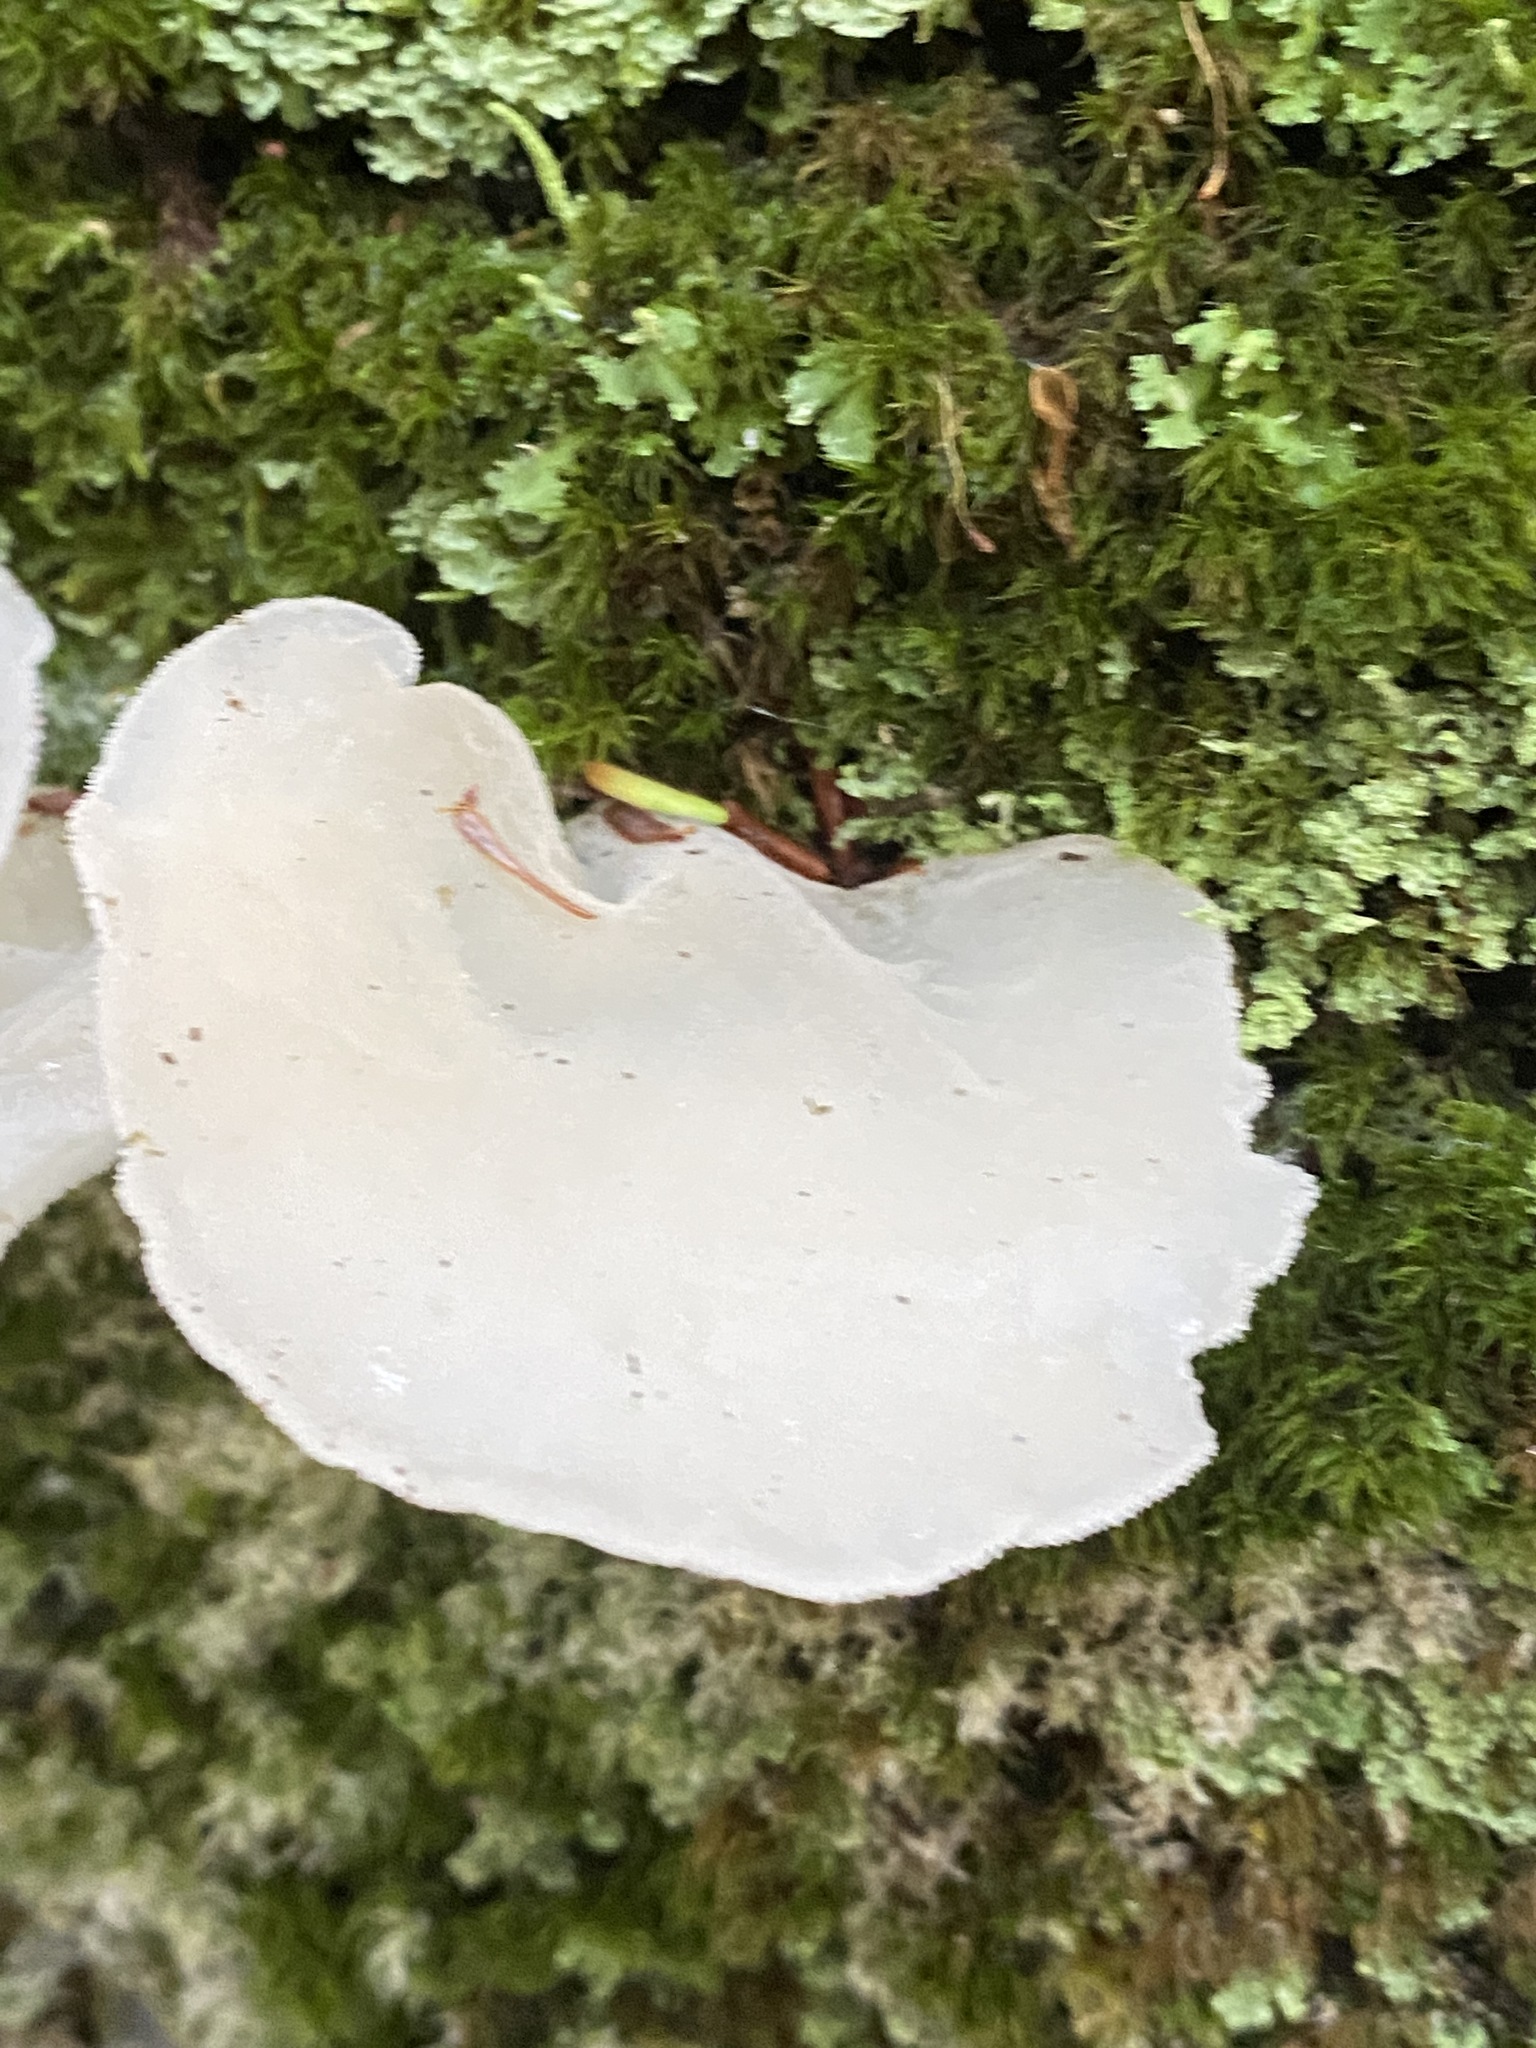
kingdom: Fungi
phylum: Basidiomycota
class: Agaricomycetes
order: Auriculariales
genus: Pseudohydnum
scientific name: Pseudohydnum gelatinosum
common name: Jelly tongue
